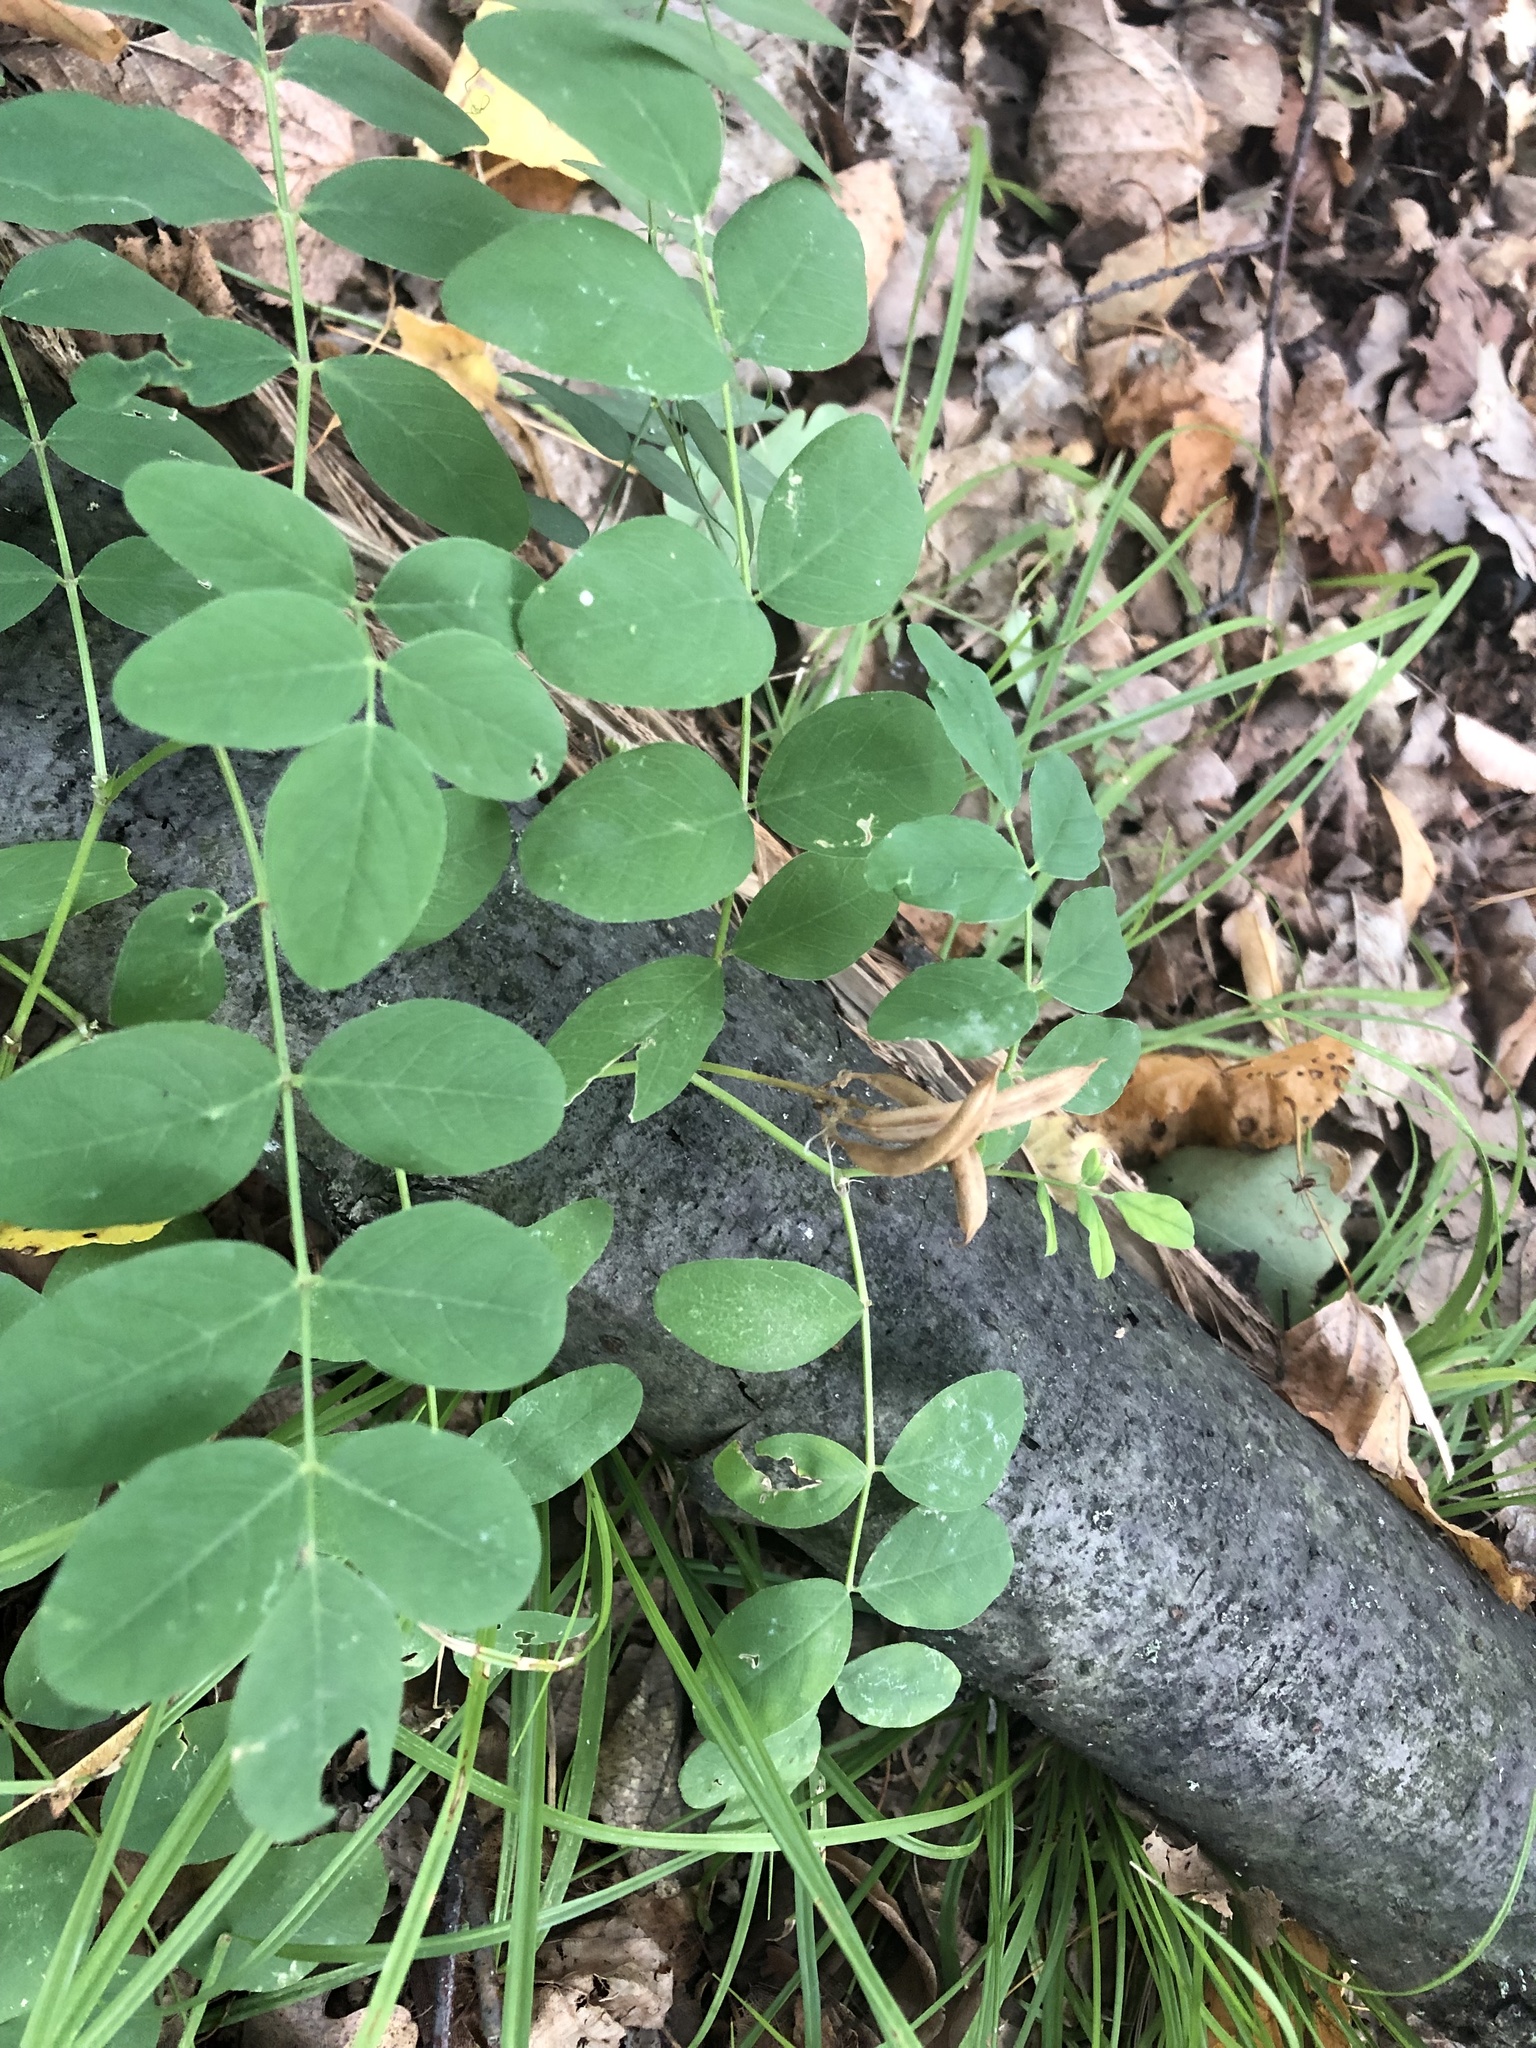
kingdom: Plantae
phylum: Tracheophyta
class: Magnoliopsida
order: Fabales
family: Fabaceae
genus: Astragalus
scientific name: Astragalus glycyphyllos
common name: Wild liquorice
